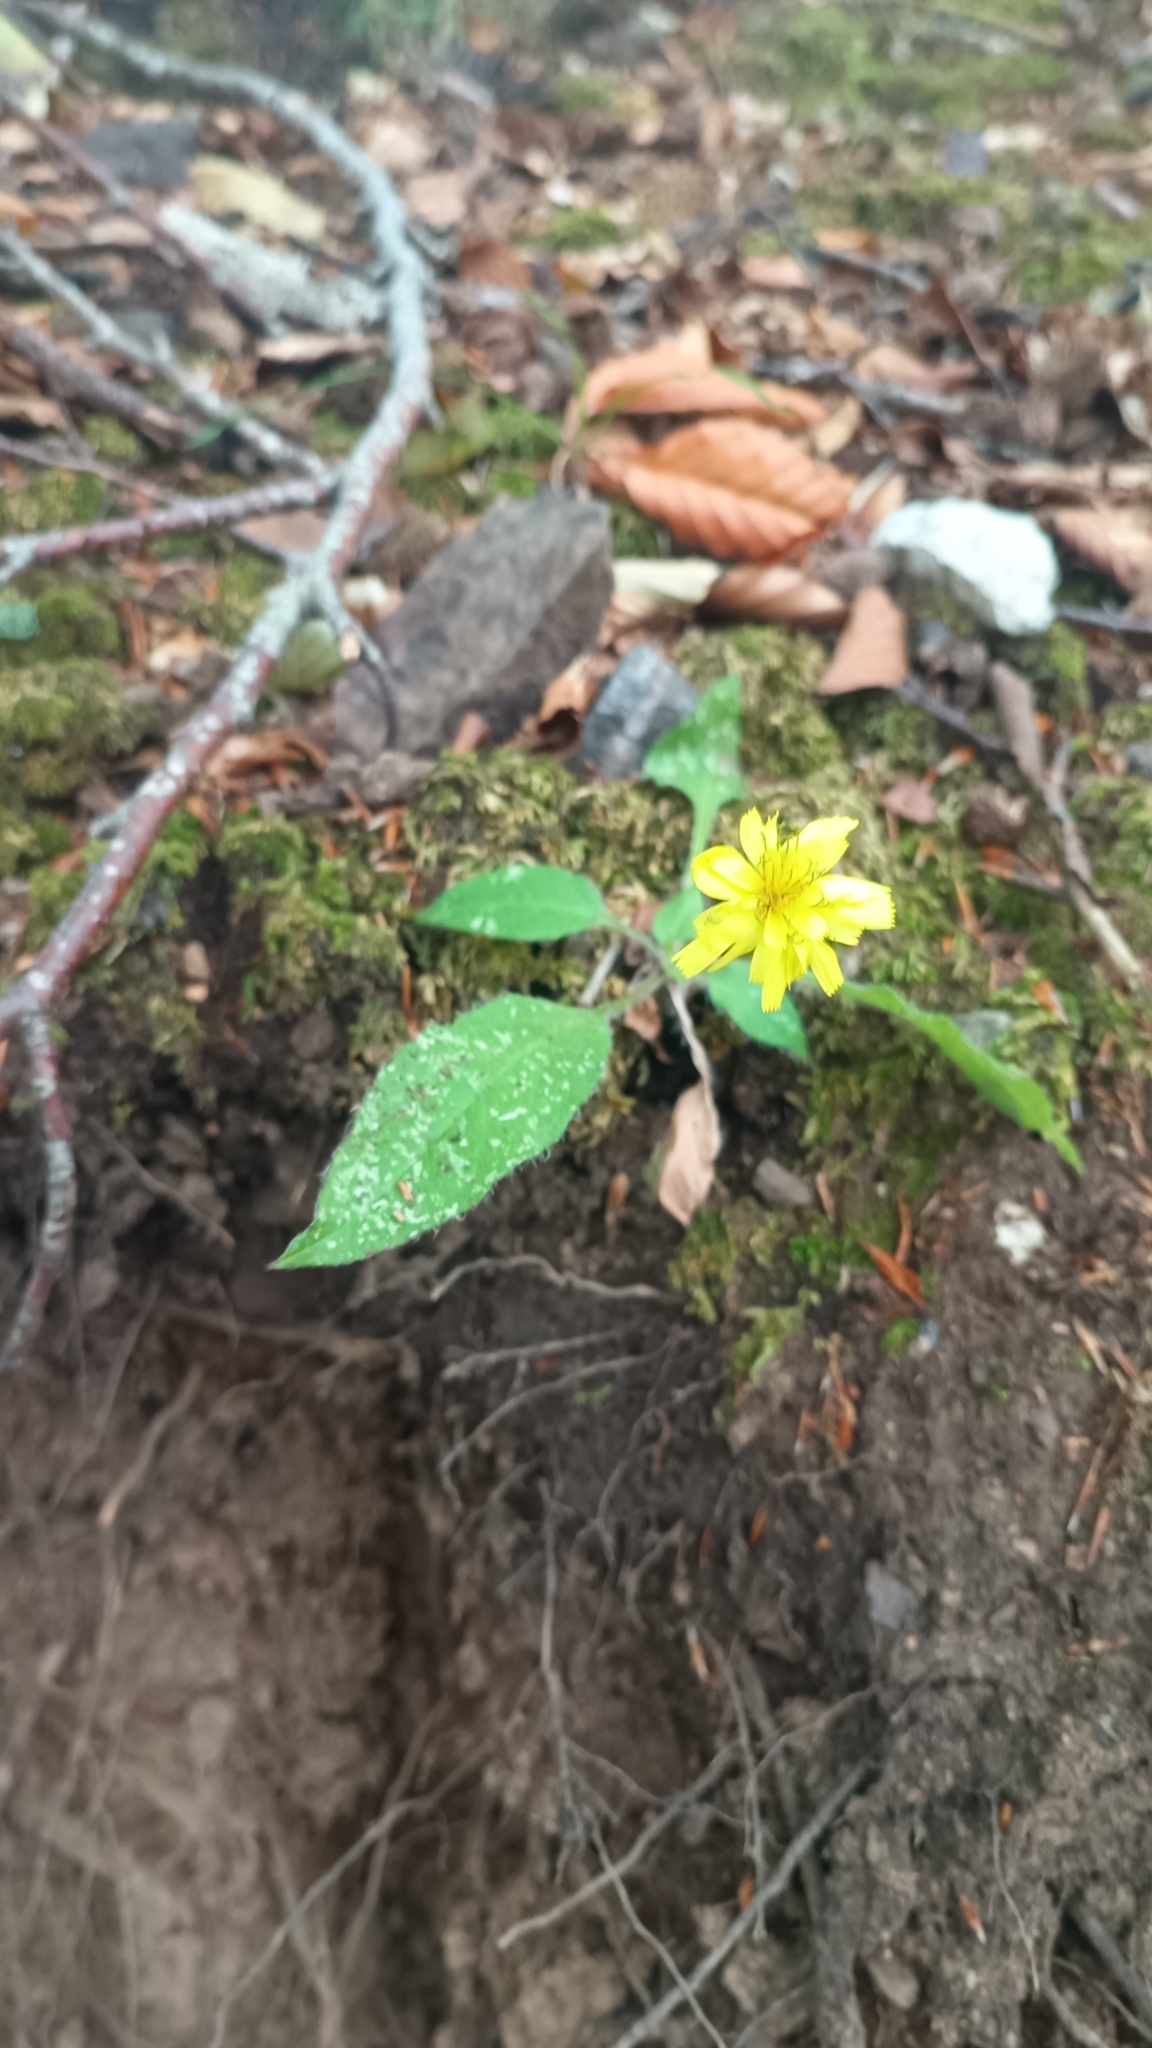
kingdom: Plantae
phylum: Tracheophyta
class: Magnoliopsida
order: Asterales
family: Asteraceae
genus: Hieracium
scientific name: Hieracium racemosum
